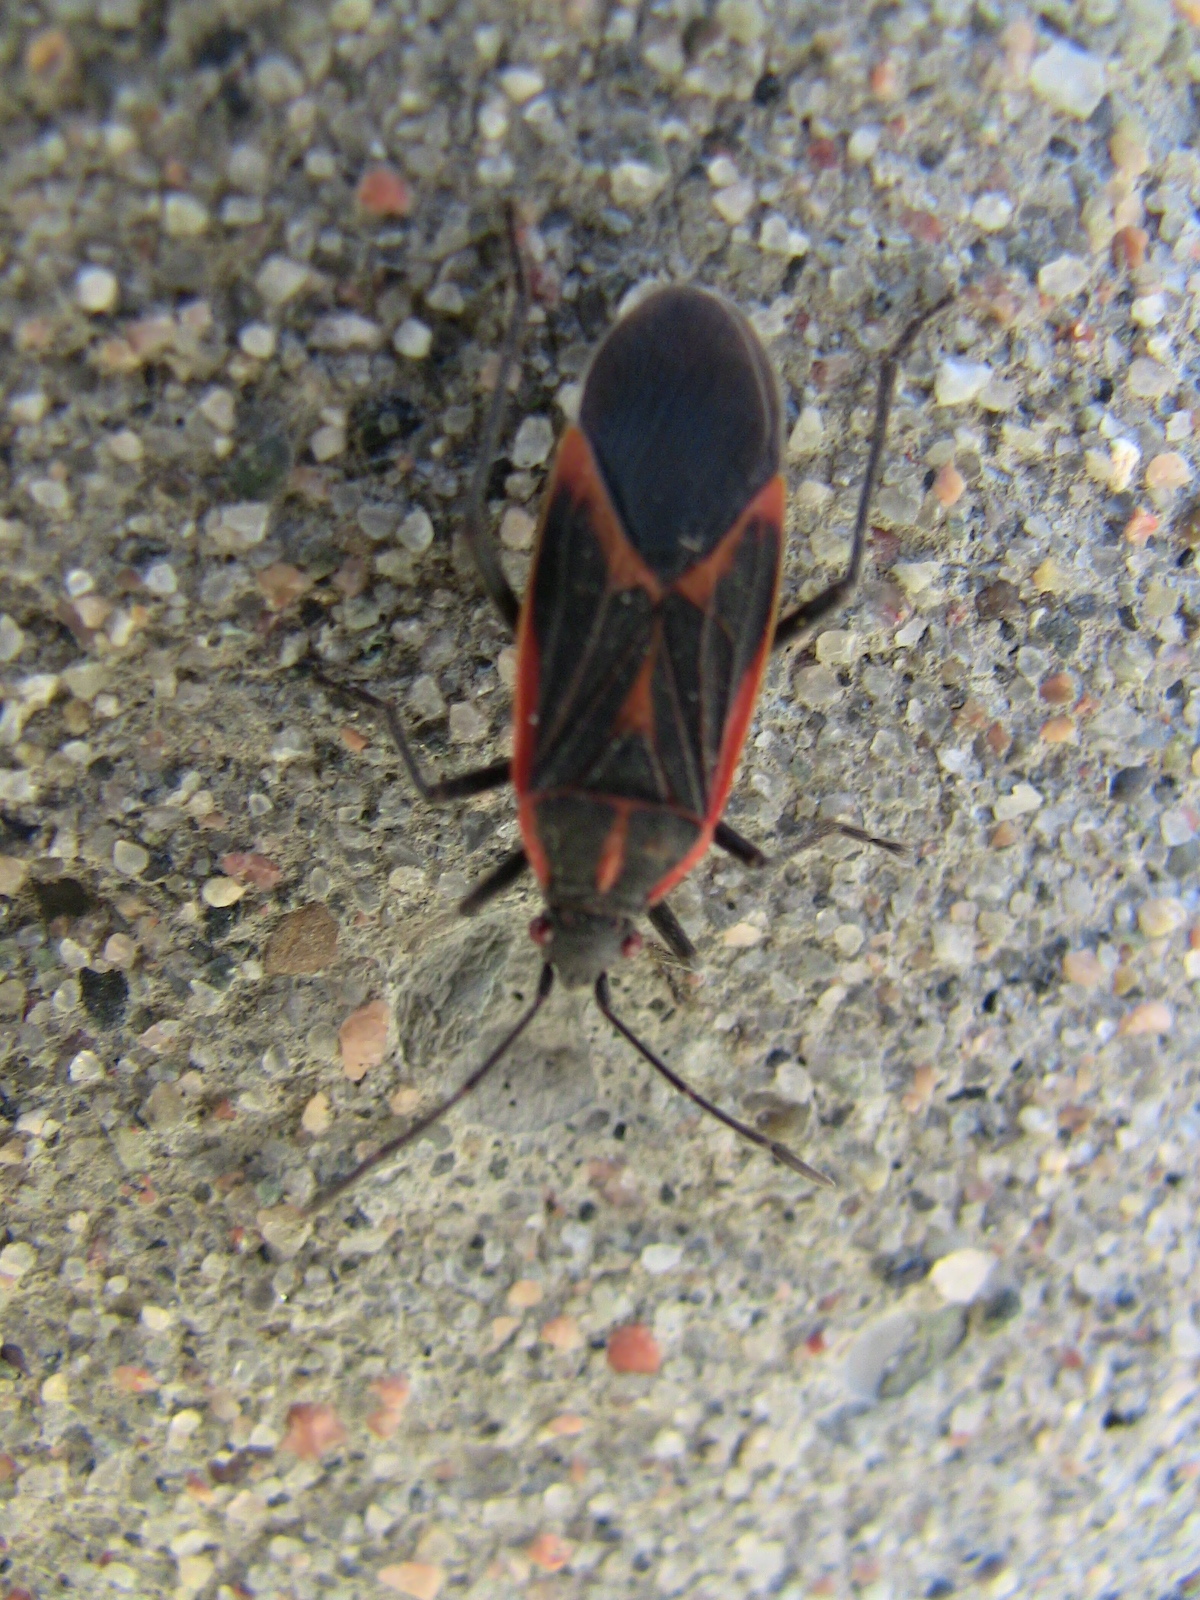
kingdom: Animalia
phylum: Arthropoda
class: Insecta
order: Hemiptera
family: Rhopalidae
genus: Boisea
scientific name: Boisea trivittata
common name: Boxelder bug
